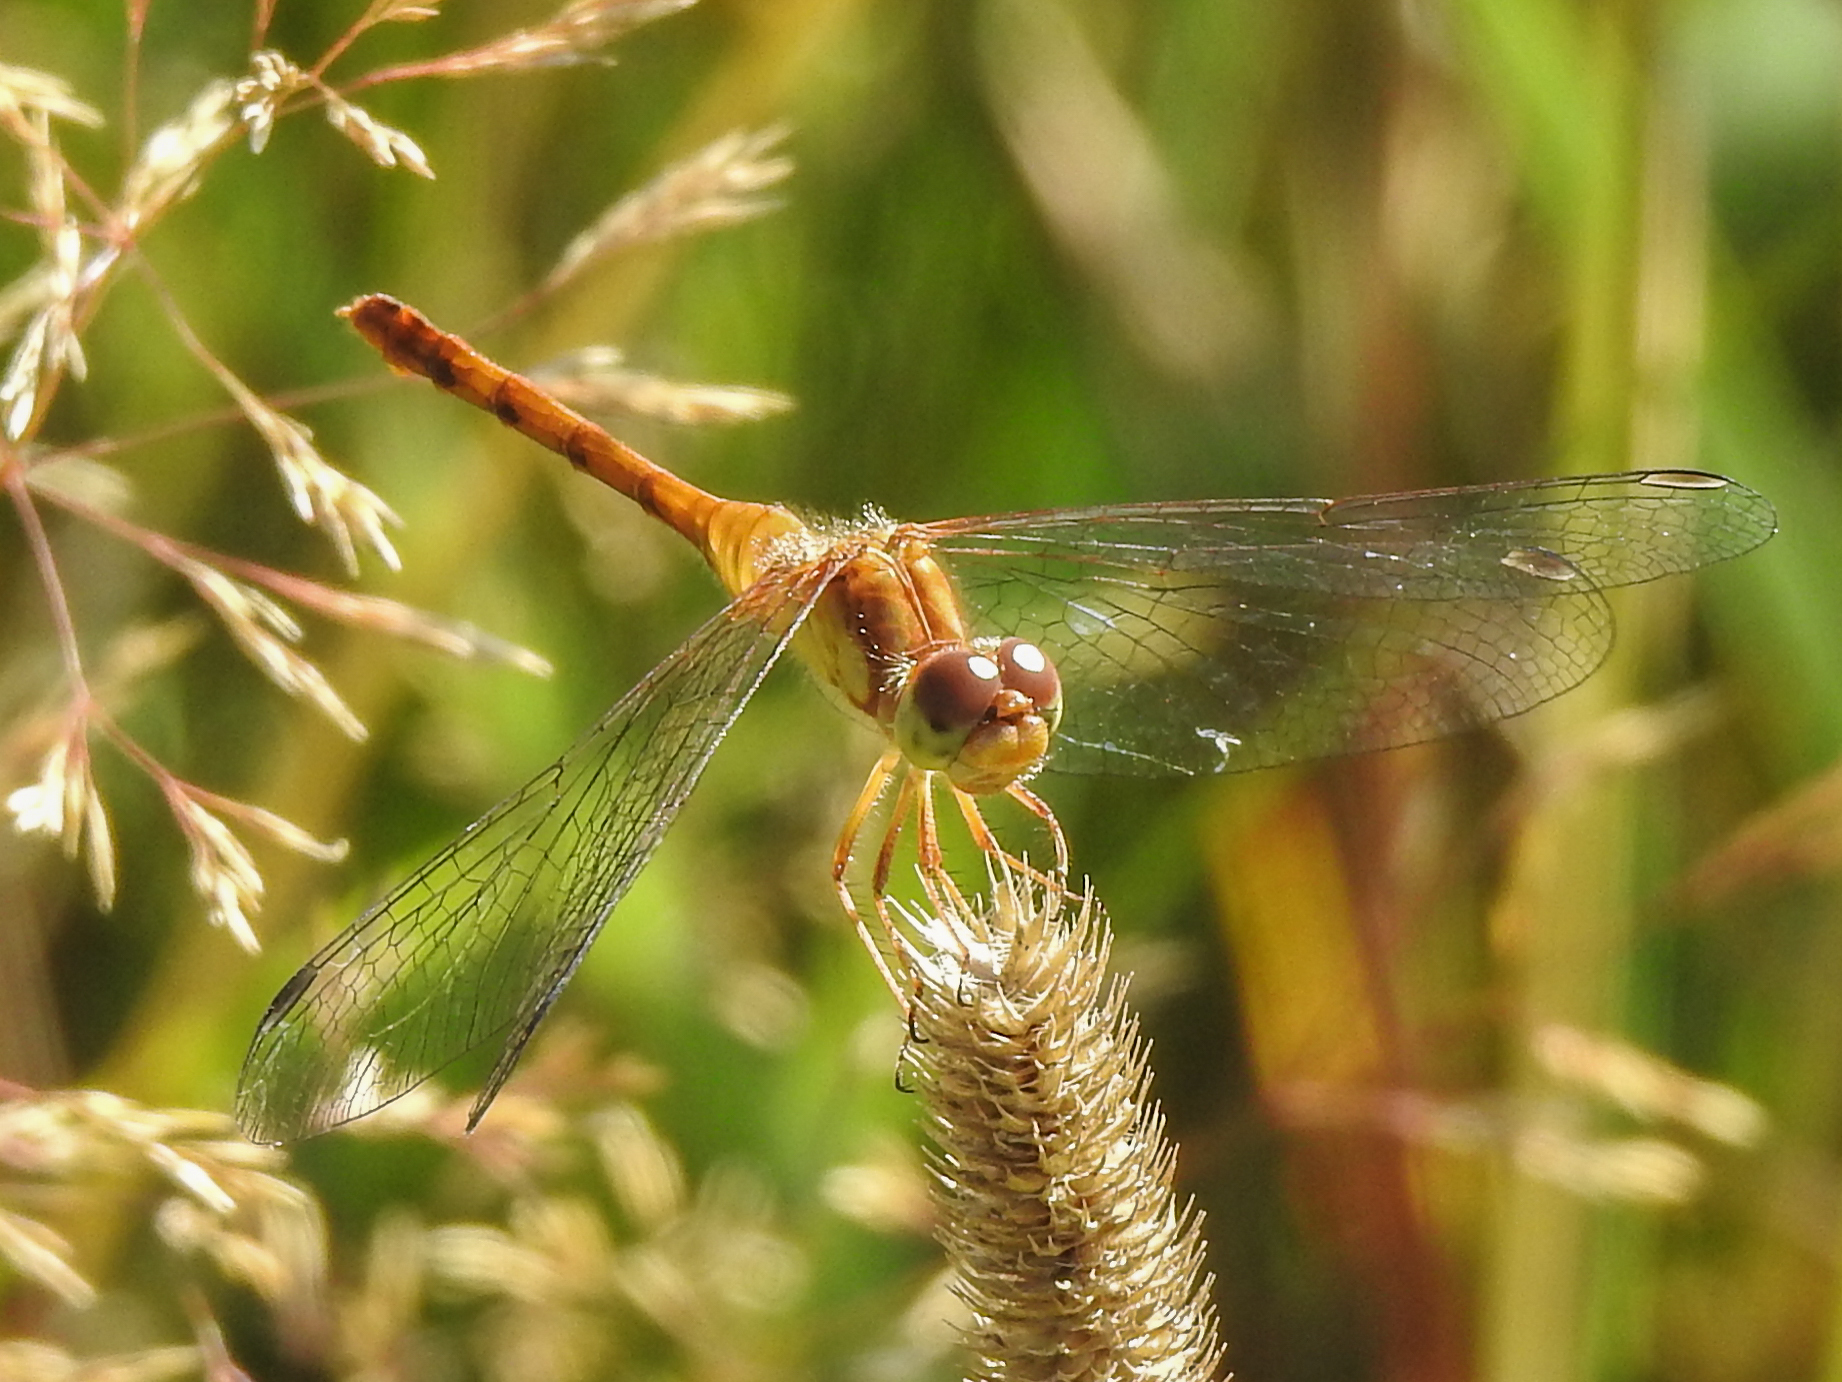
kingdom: Animalia
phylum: Arthropoda
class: Insecta
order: Odonata
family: Libellulidae
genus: Sympetrum
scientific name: Sympetrum vicinum
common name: Autumn meadowhawk
